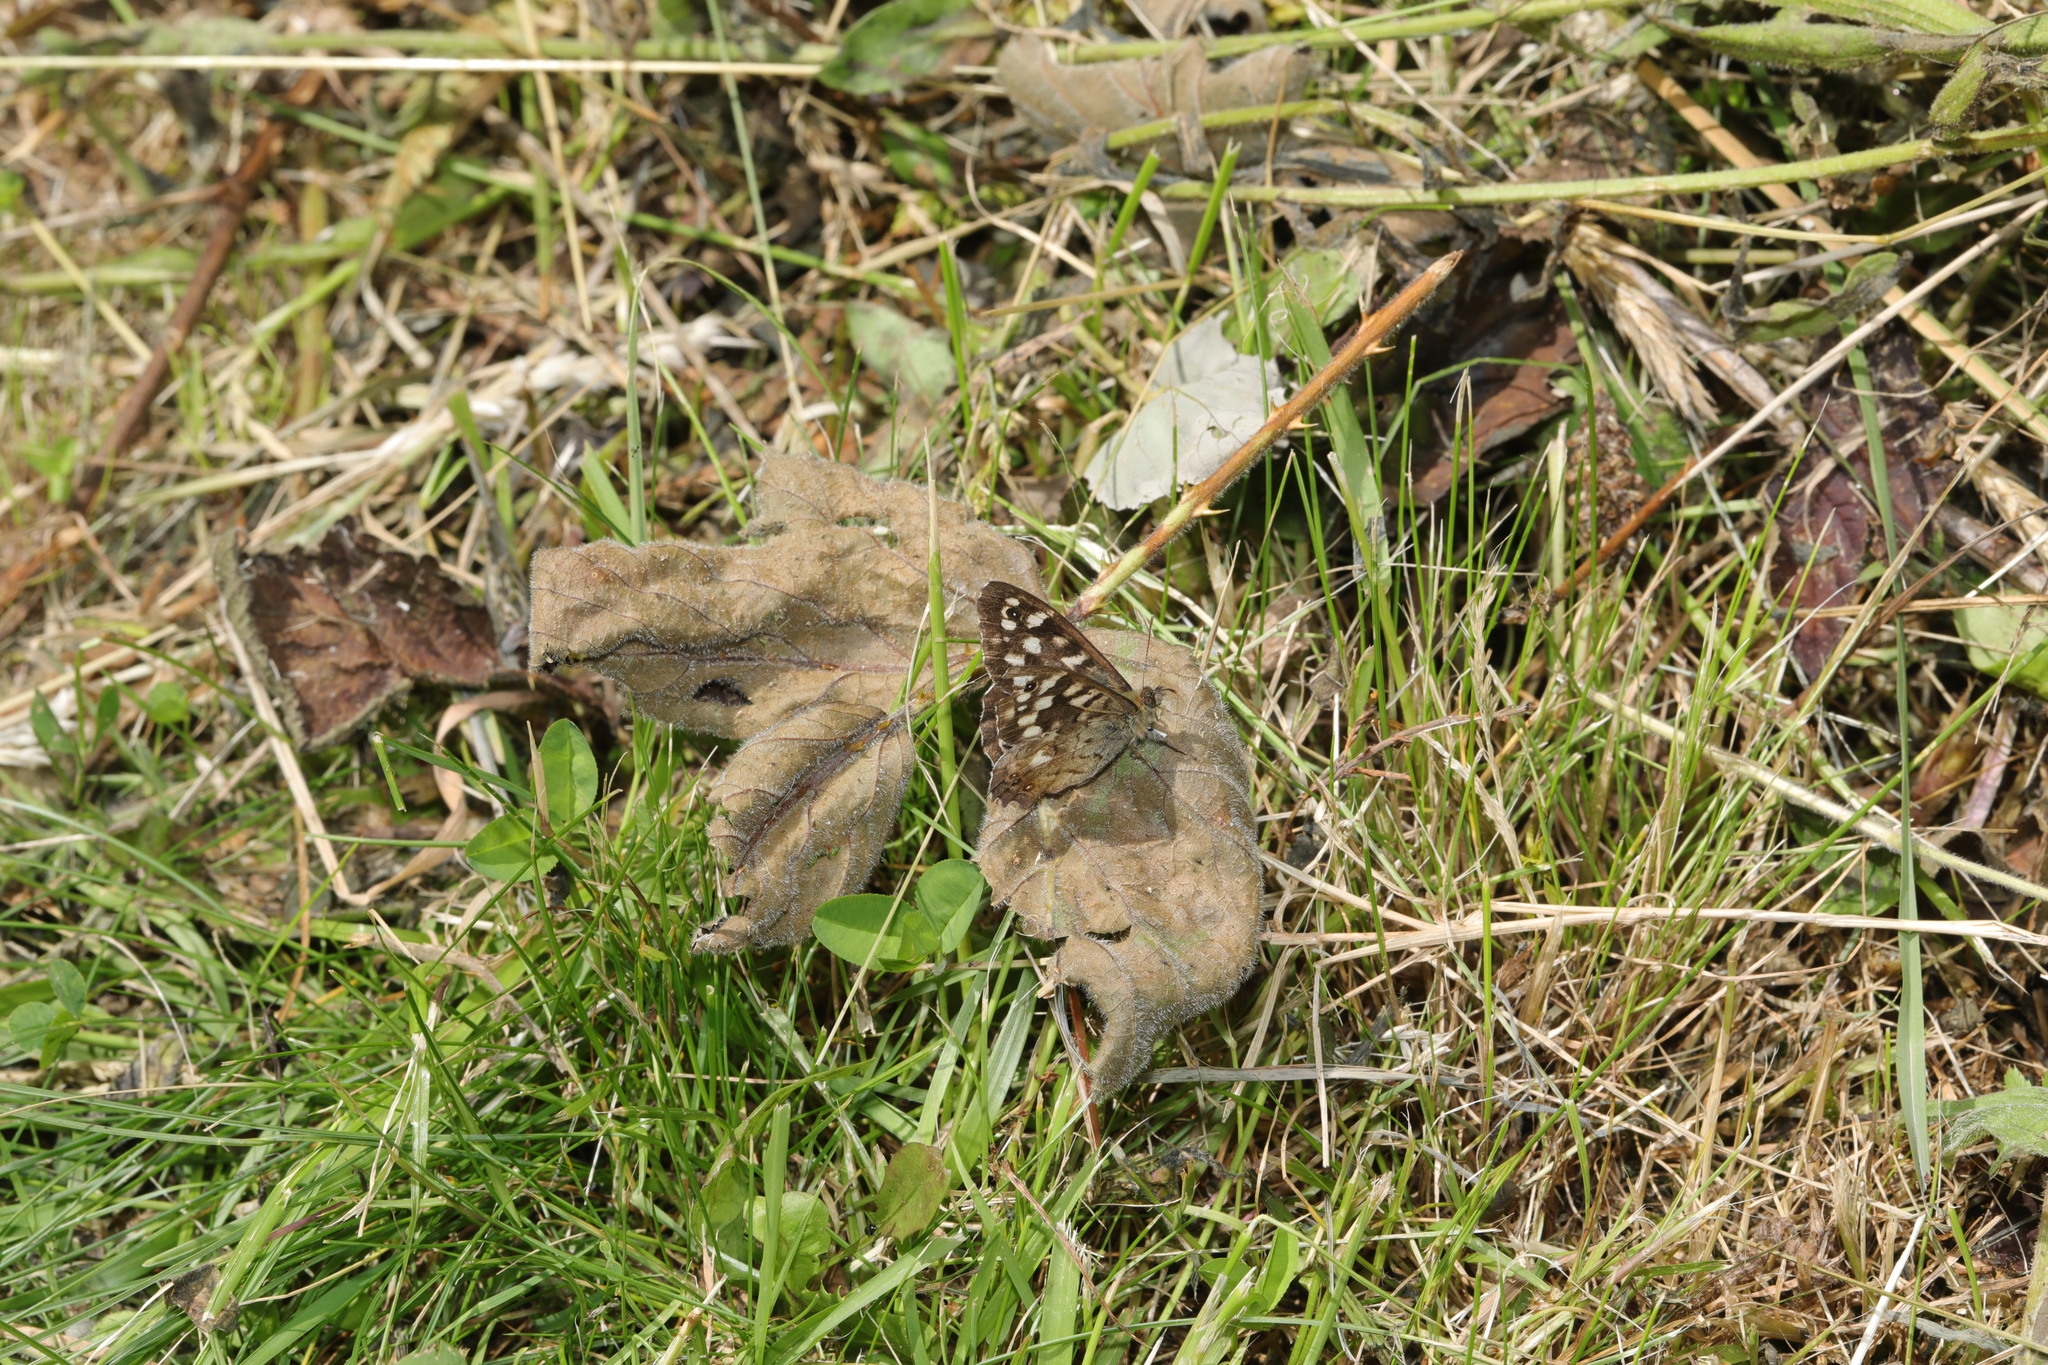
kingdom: Animalia
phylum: Arthropoda
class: Insecta
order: Lepidoptera
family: Nymphalidae
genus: Pararge
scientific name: Pararge aegeria
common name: Speckled wood
